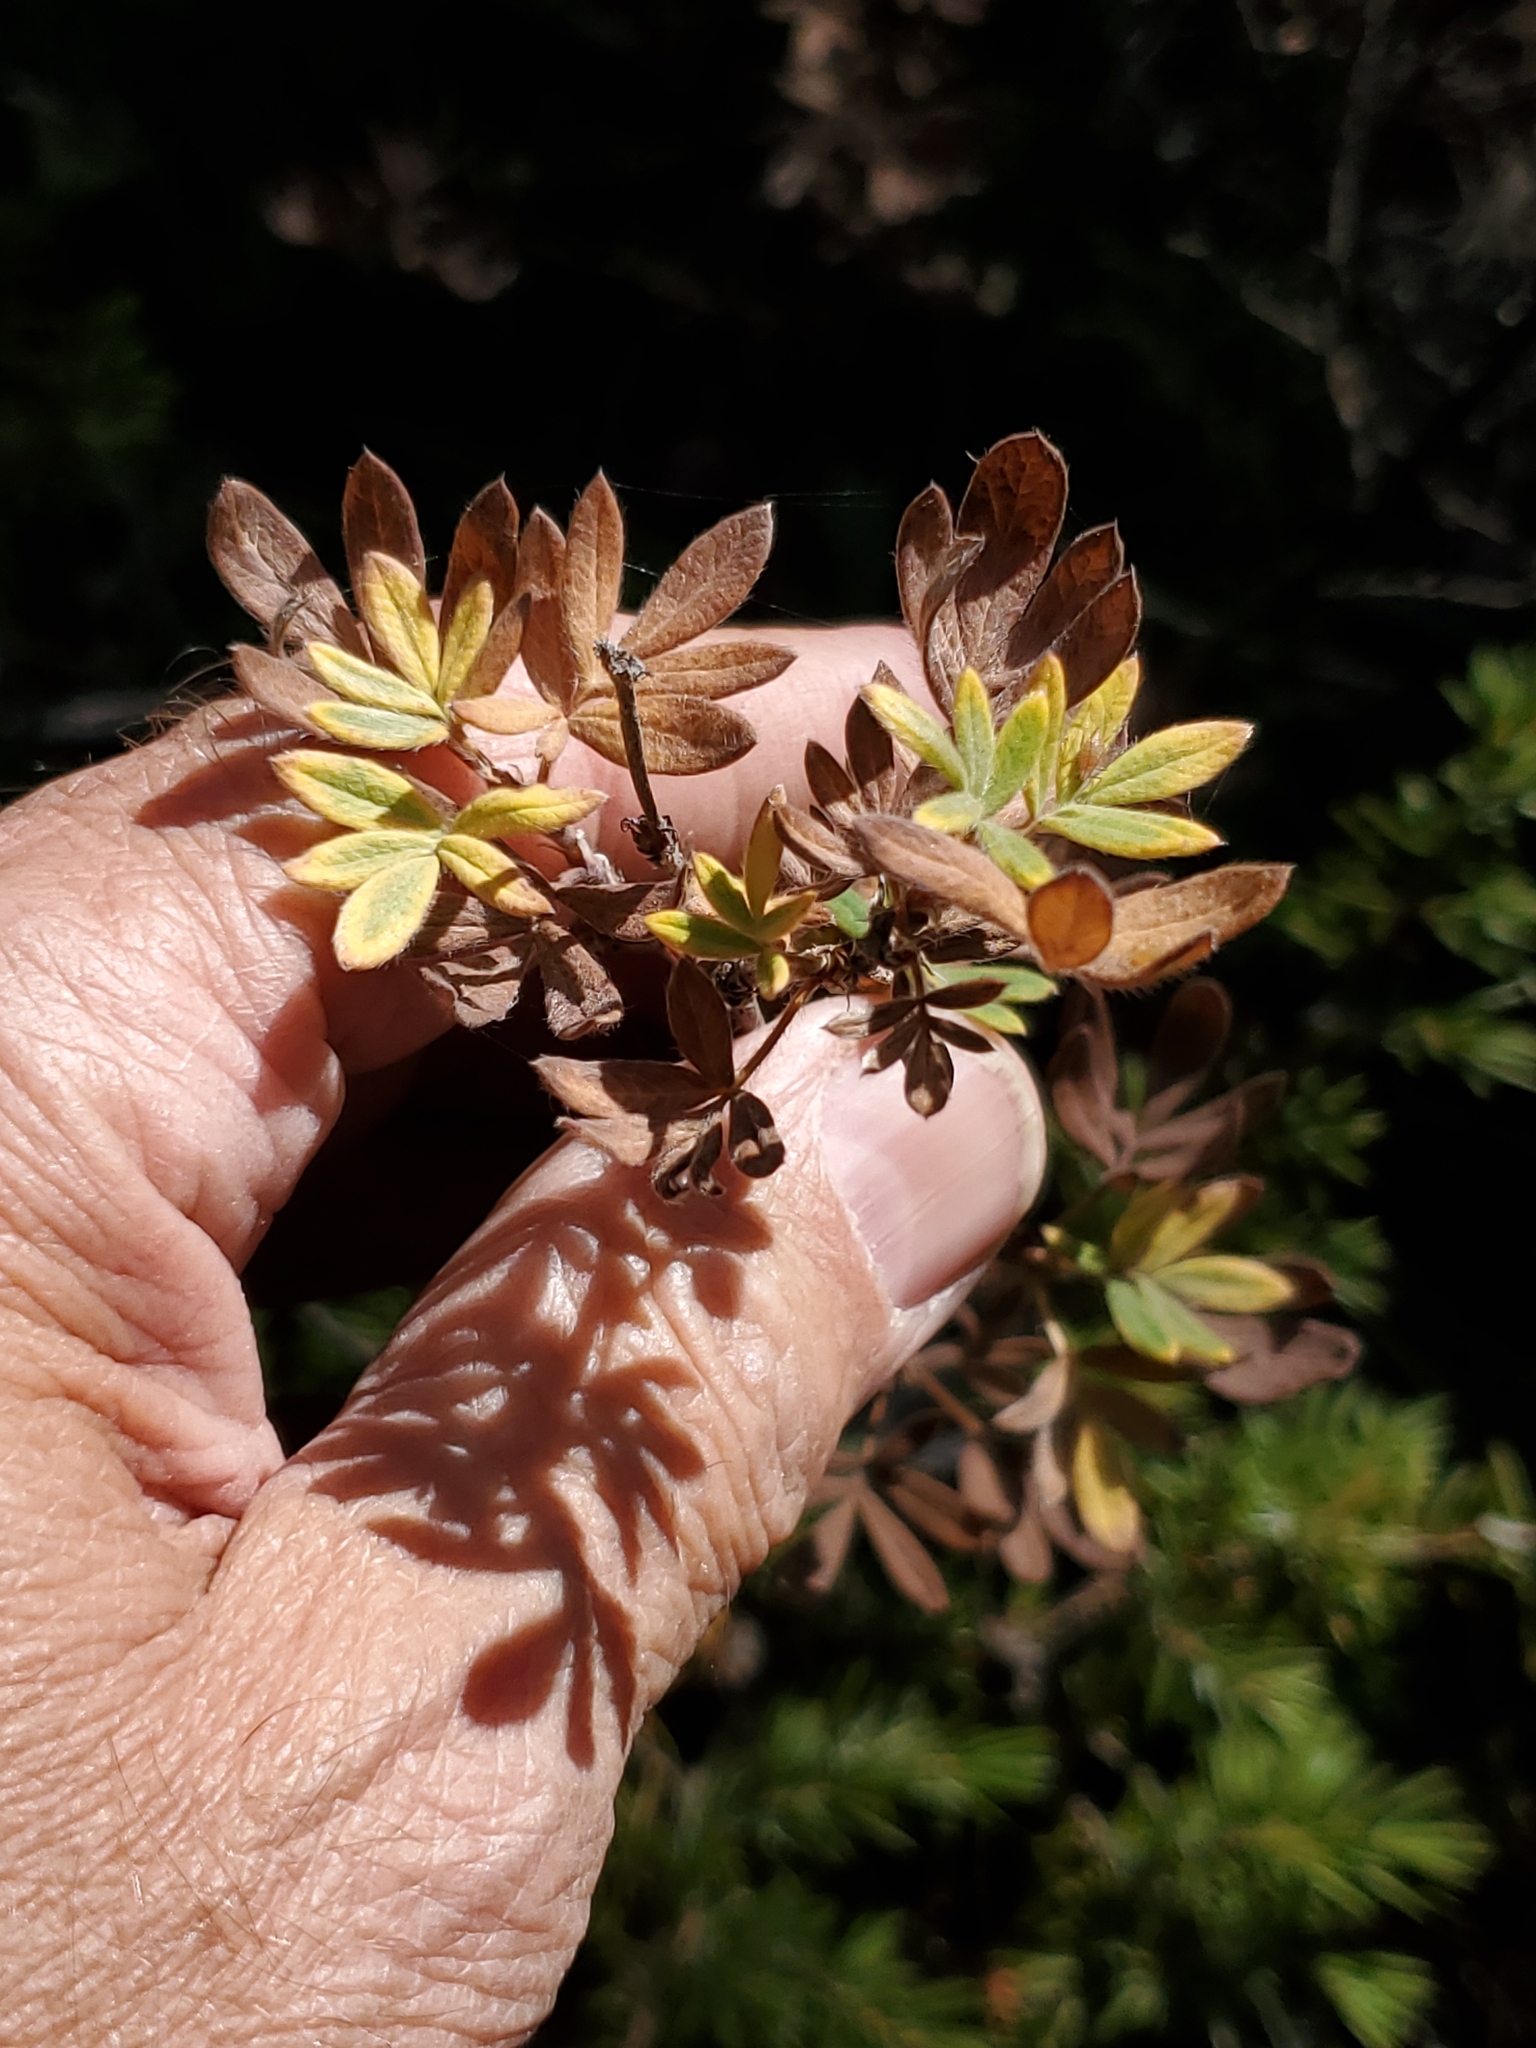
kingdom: Plantae
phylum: Tracheophyta
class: Magnoliopsida
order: Rosales
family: Rosaceae
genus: Dasiphora
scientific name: Dasiphora fruticosa
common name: Shrubby cinquefoil
